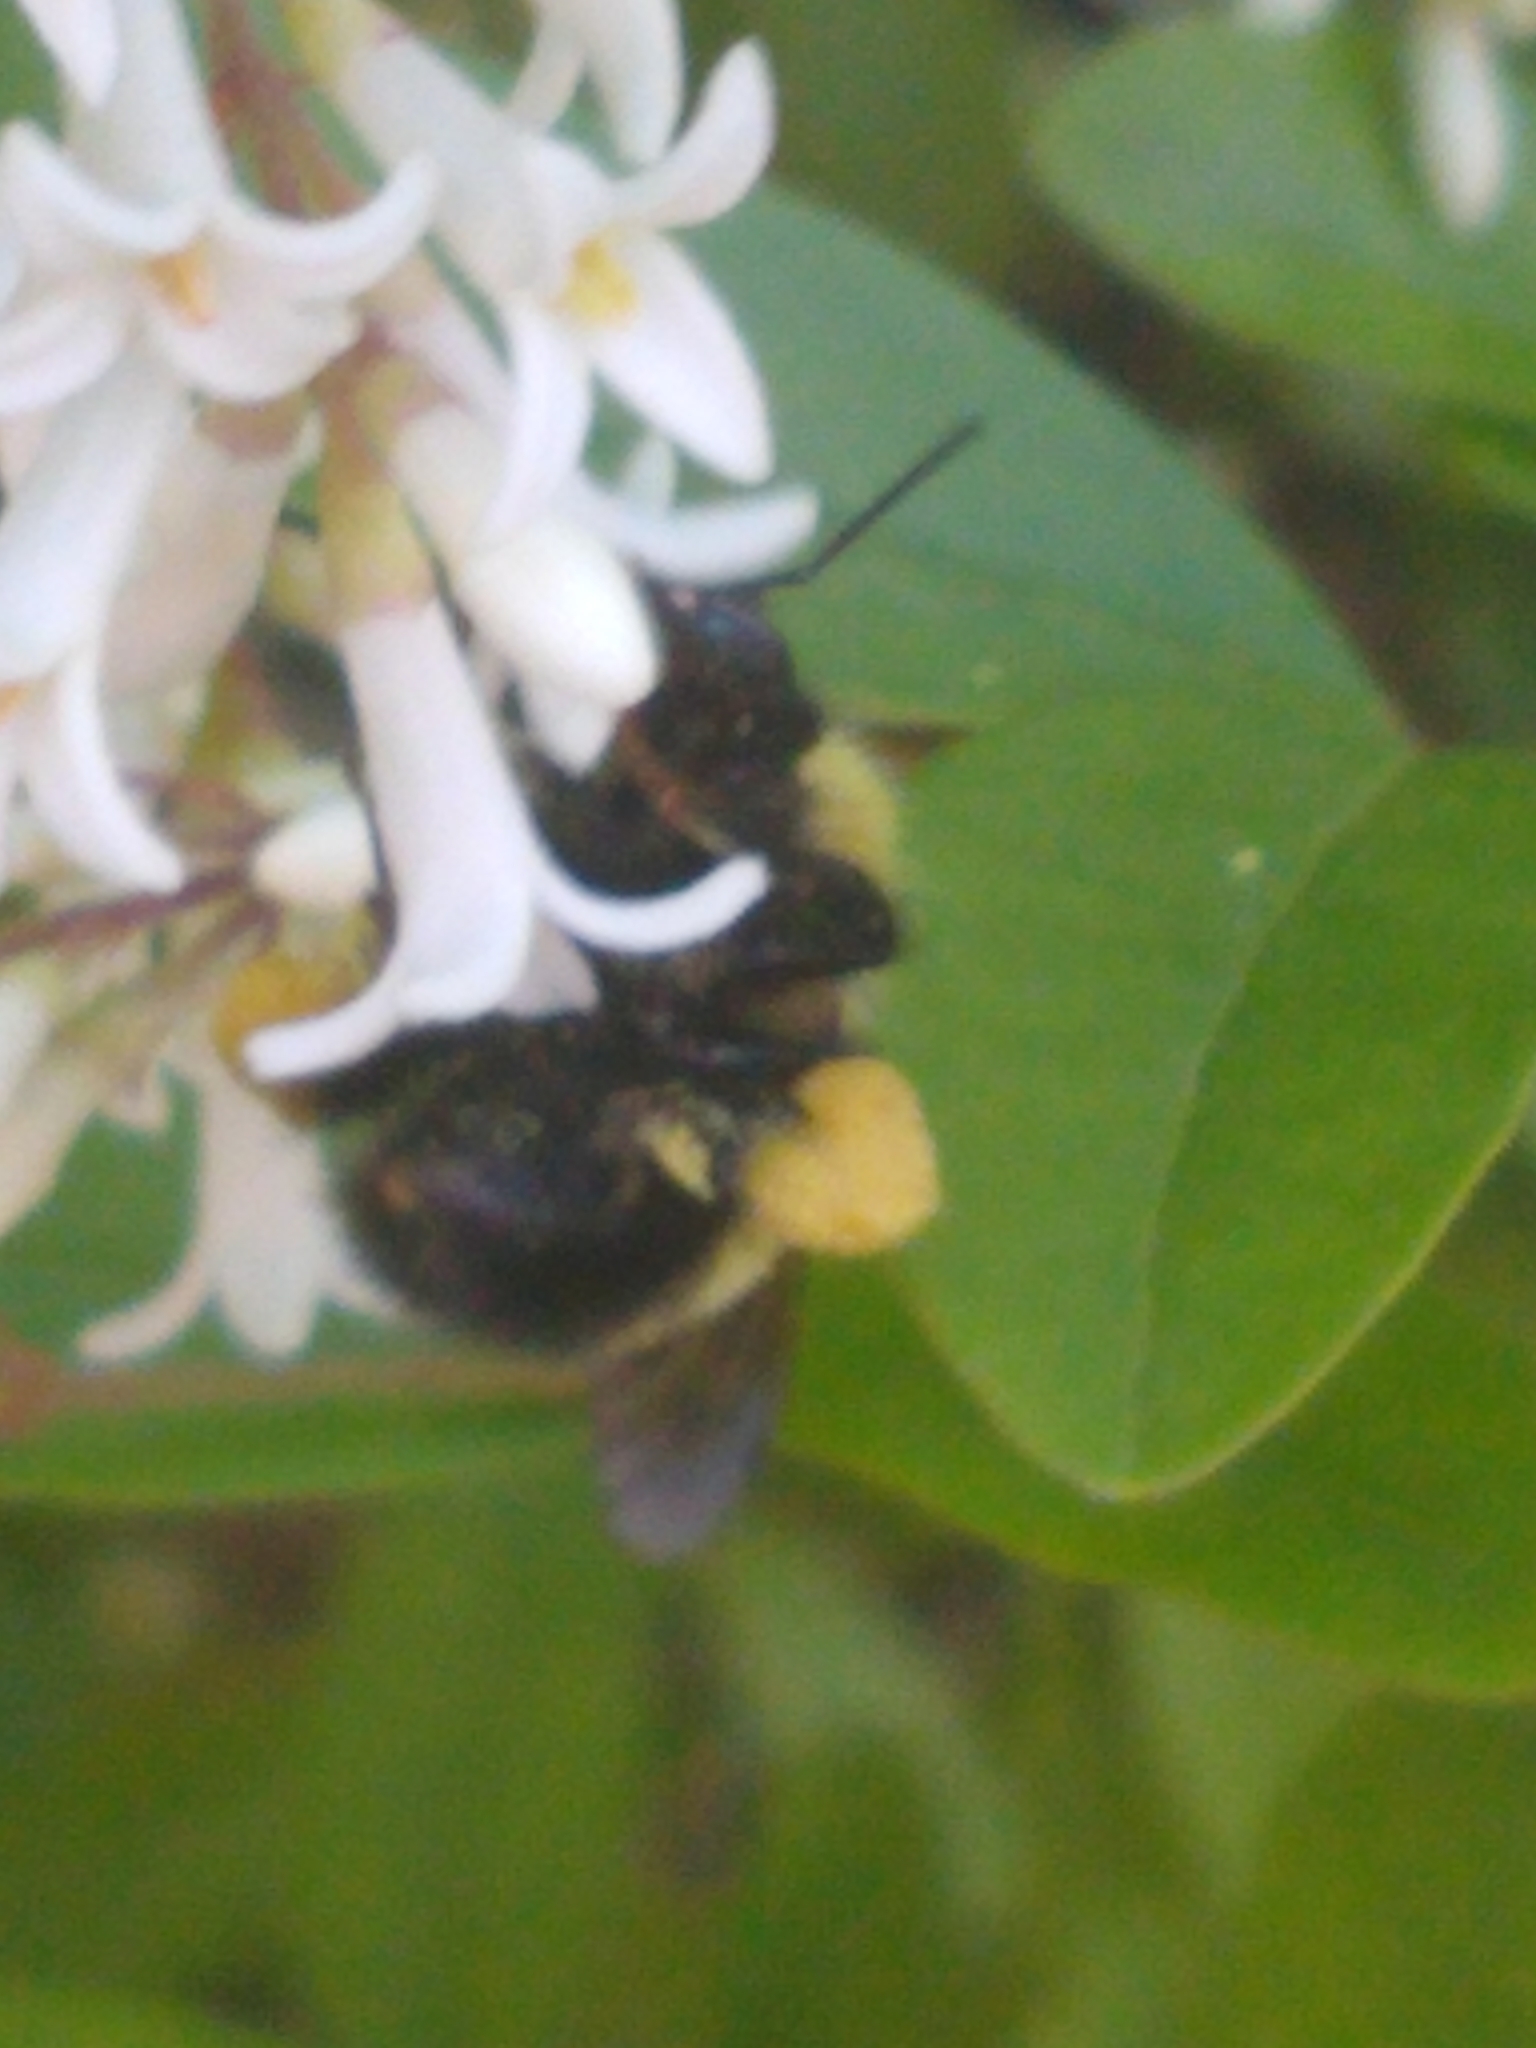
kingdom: Animalia
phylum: Arthropoda
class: Insecta
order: Hymenoptera
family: Apidae
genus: Bombus
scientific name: Bombus perplexus
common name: Confusing bumble bee
